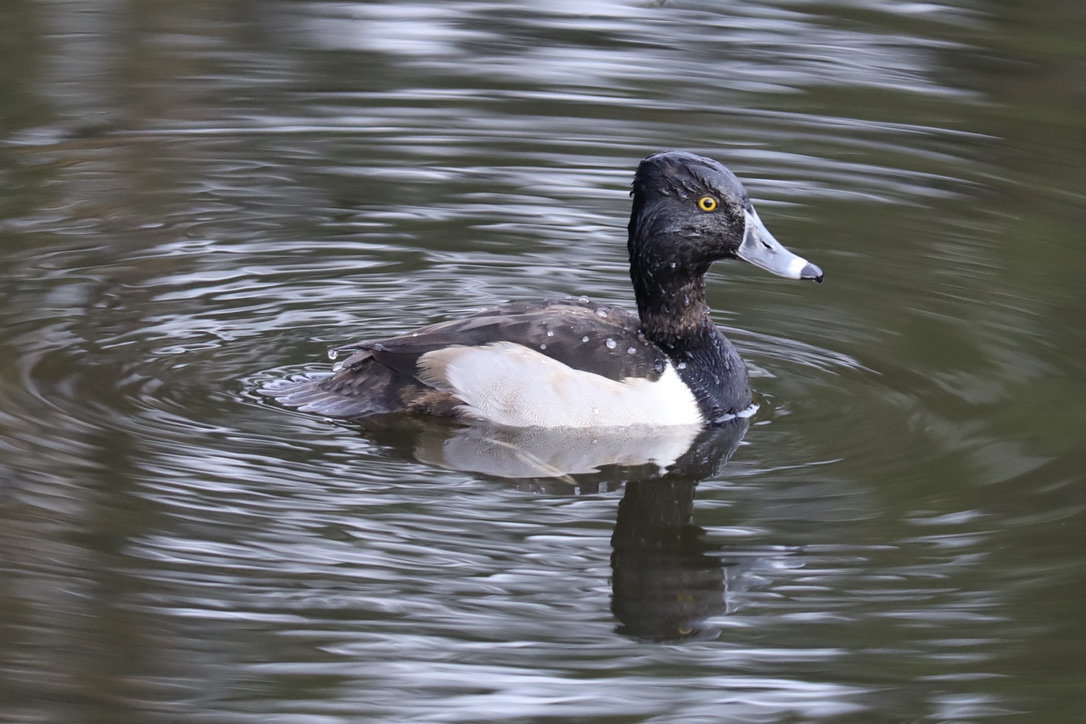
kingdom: Animalia
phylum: Chordata
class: Aves
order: Anseriformes
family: Anatidae
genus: Aythya
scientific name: Aythya collaris
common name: Ring-necked duck
